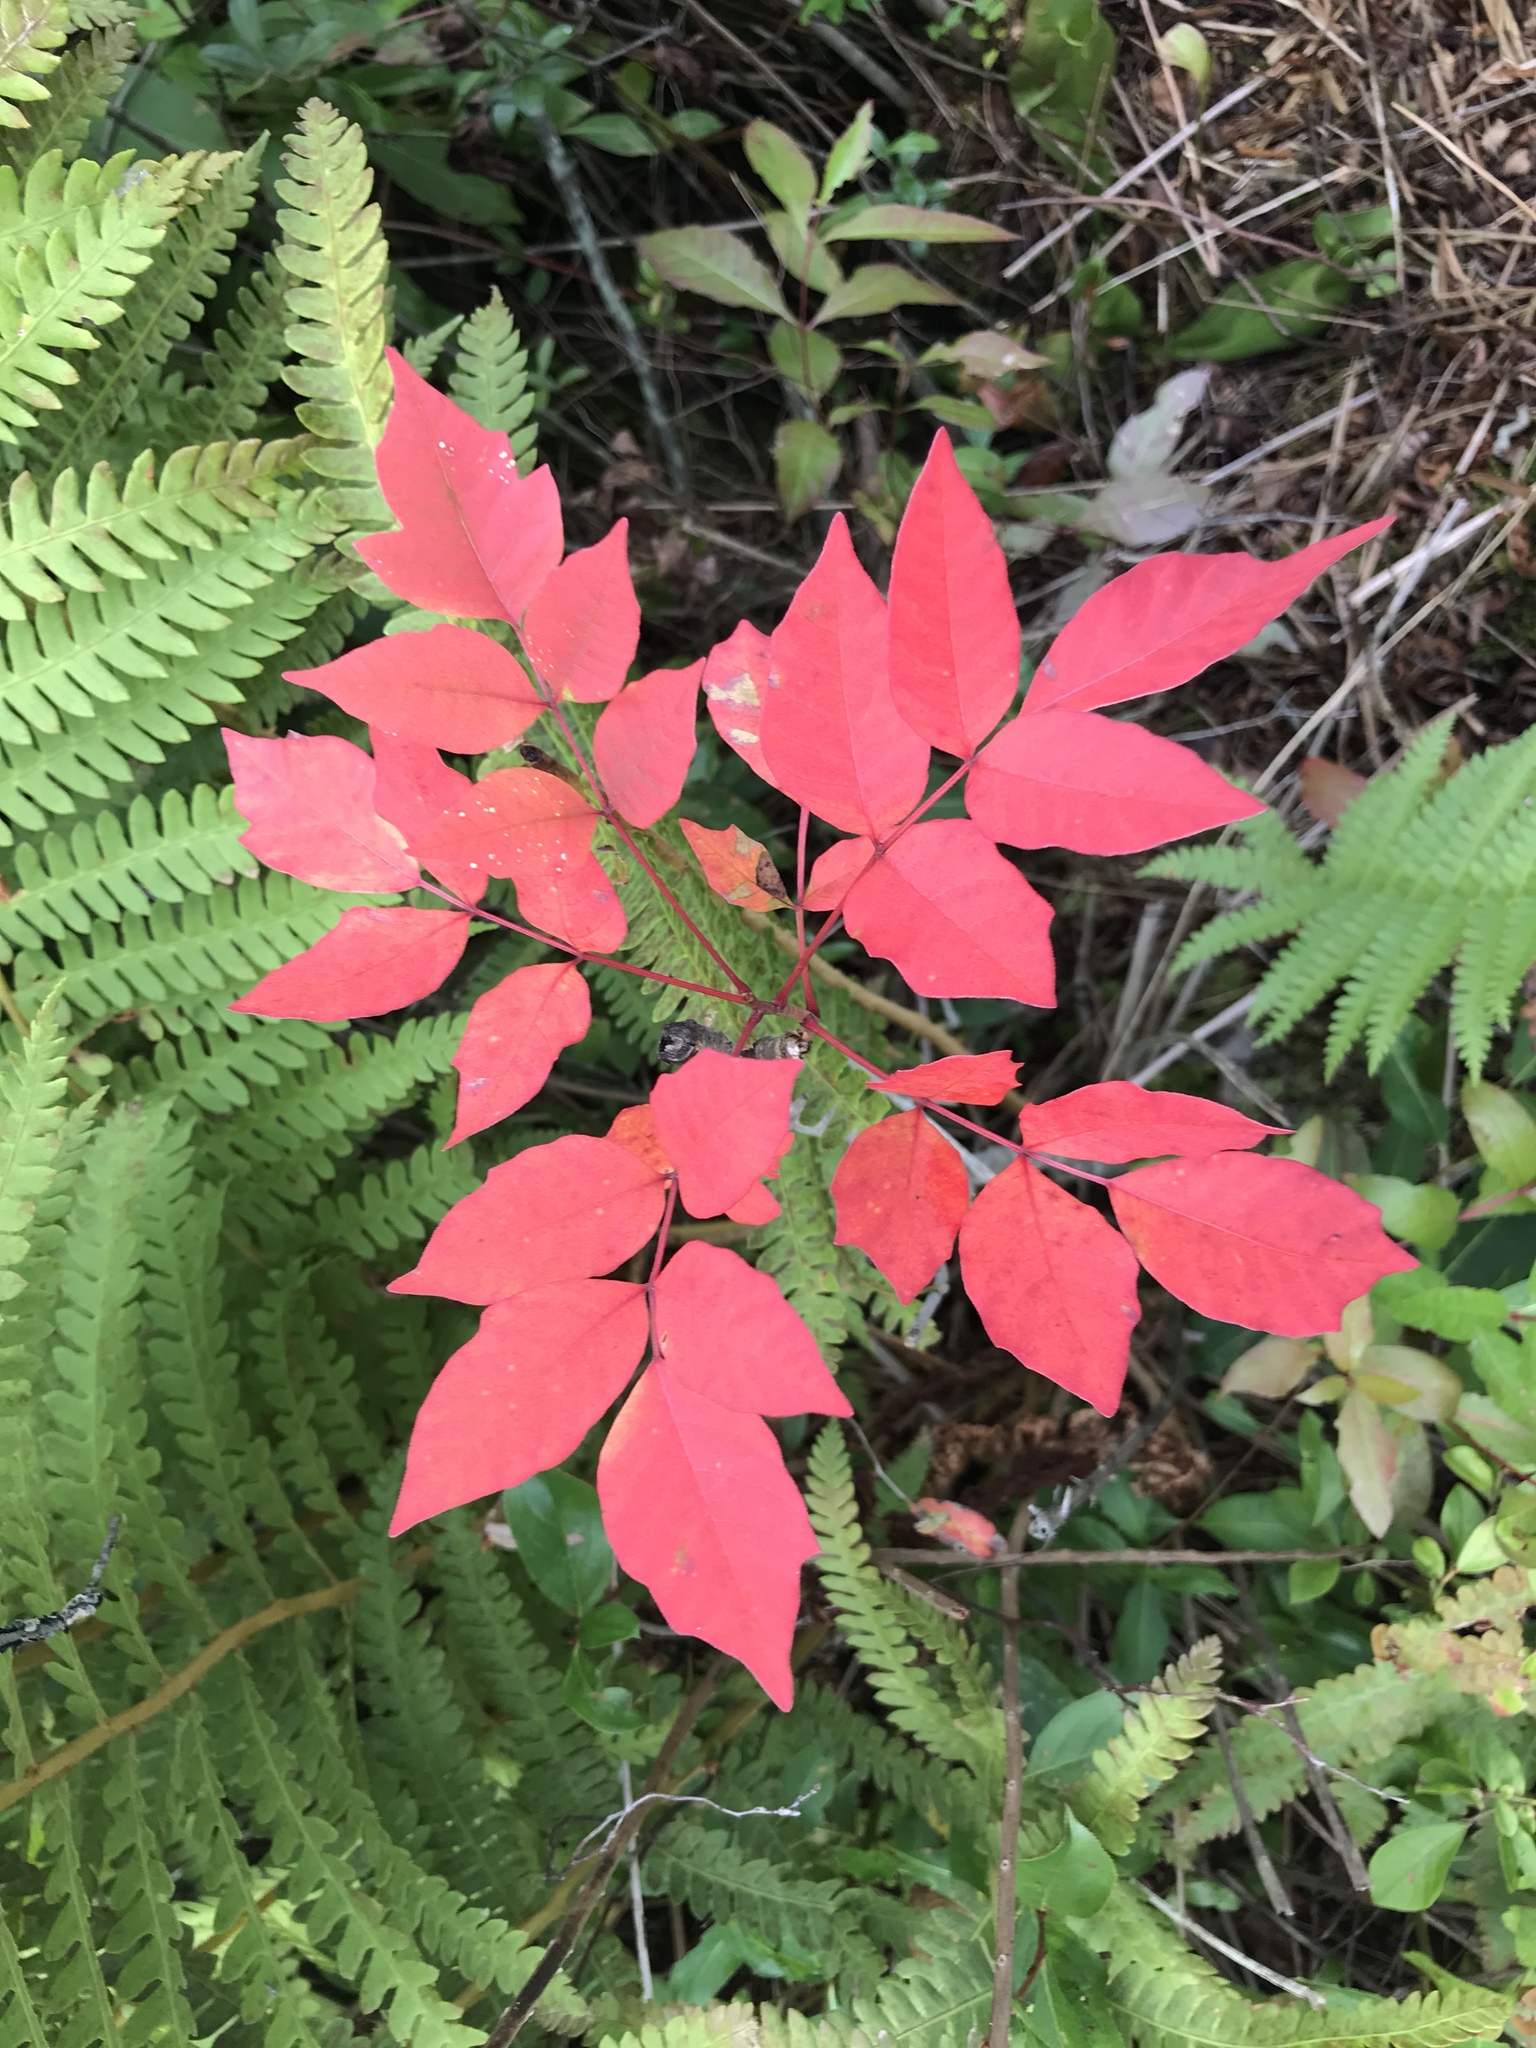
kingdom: Plantae
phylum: Tracheophyta
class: Magnoliopsida
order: Sapindales
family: Anacardiaceae
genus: Toxicodendron
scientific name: Toxicodendron vernix
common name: Poison sumac
